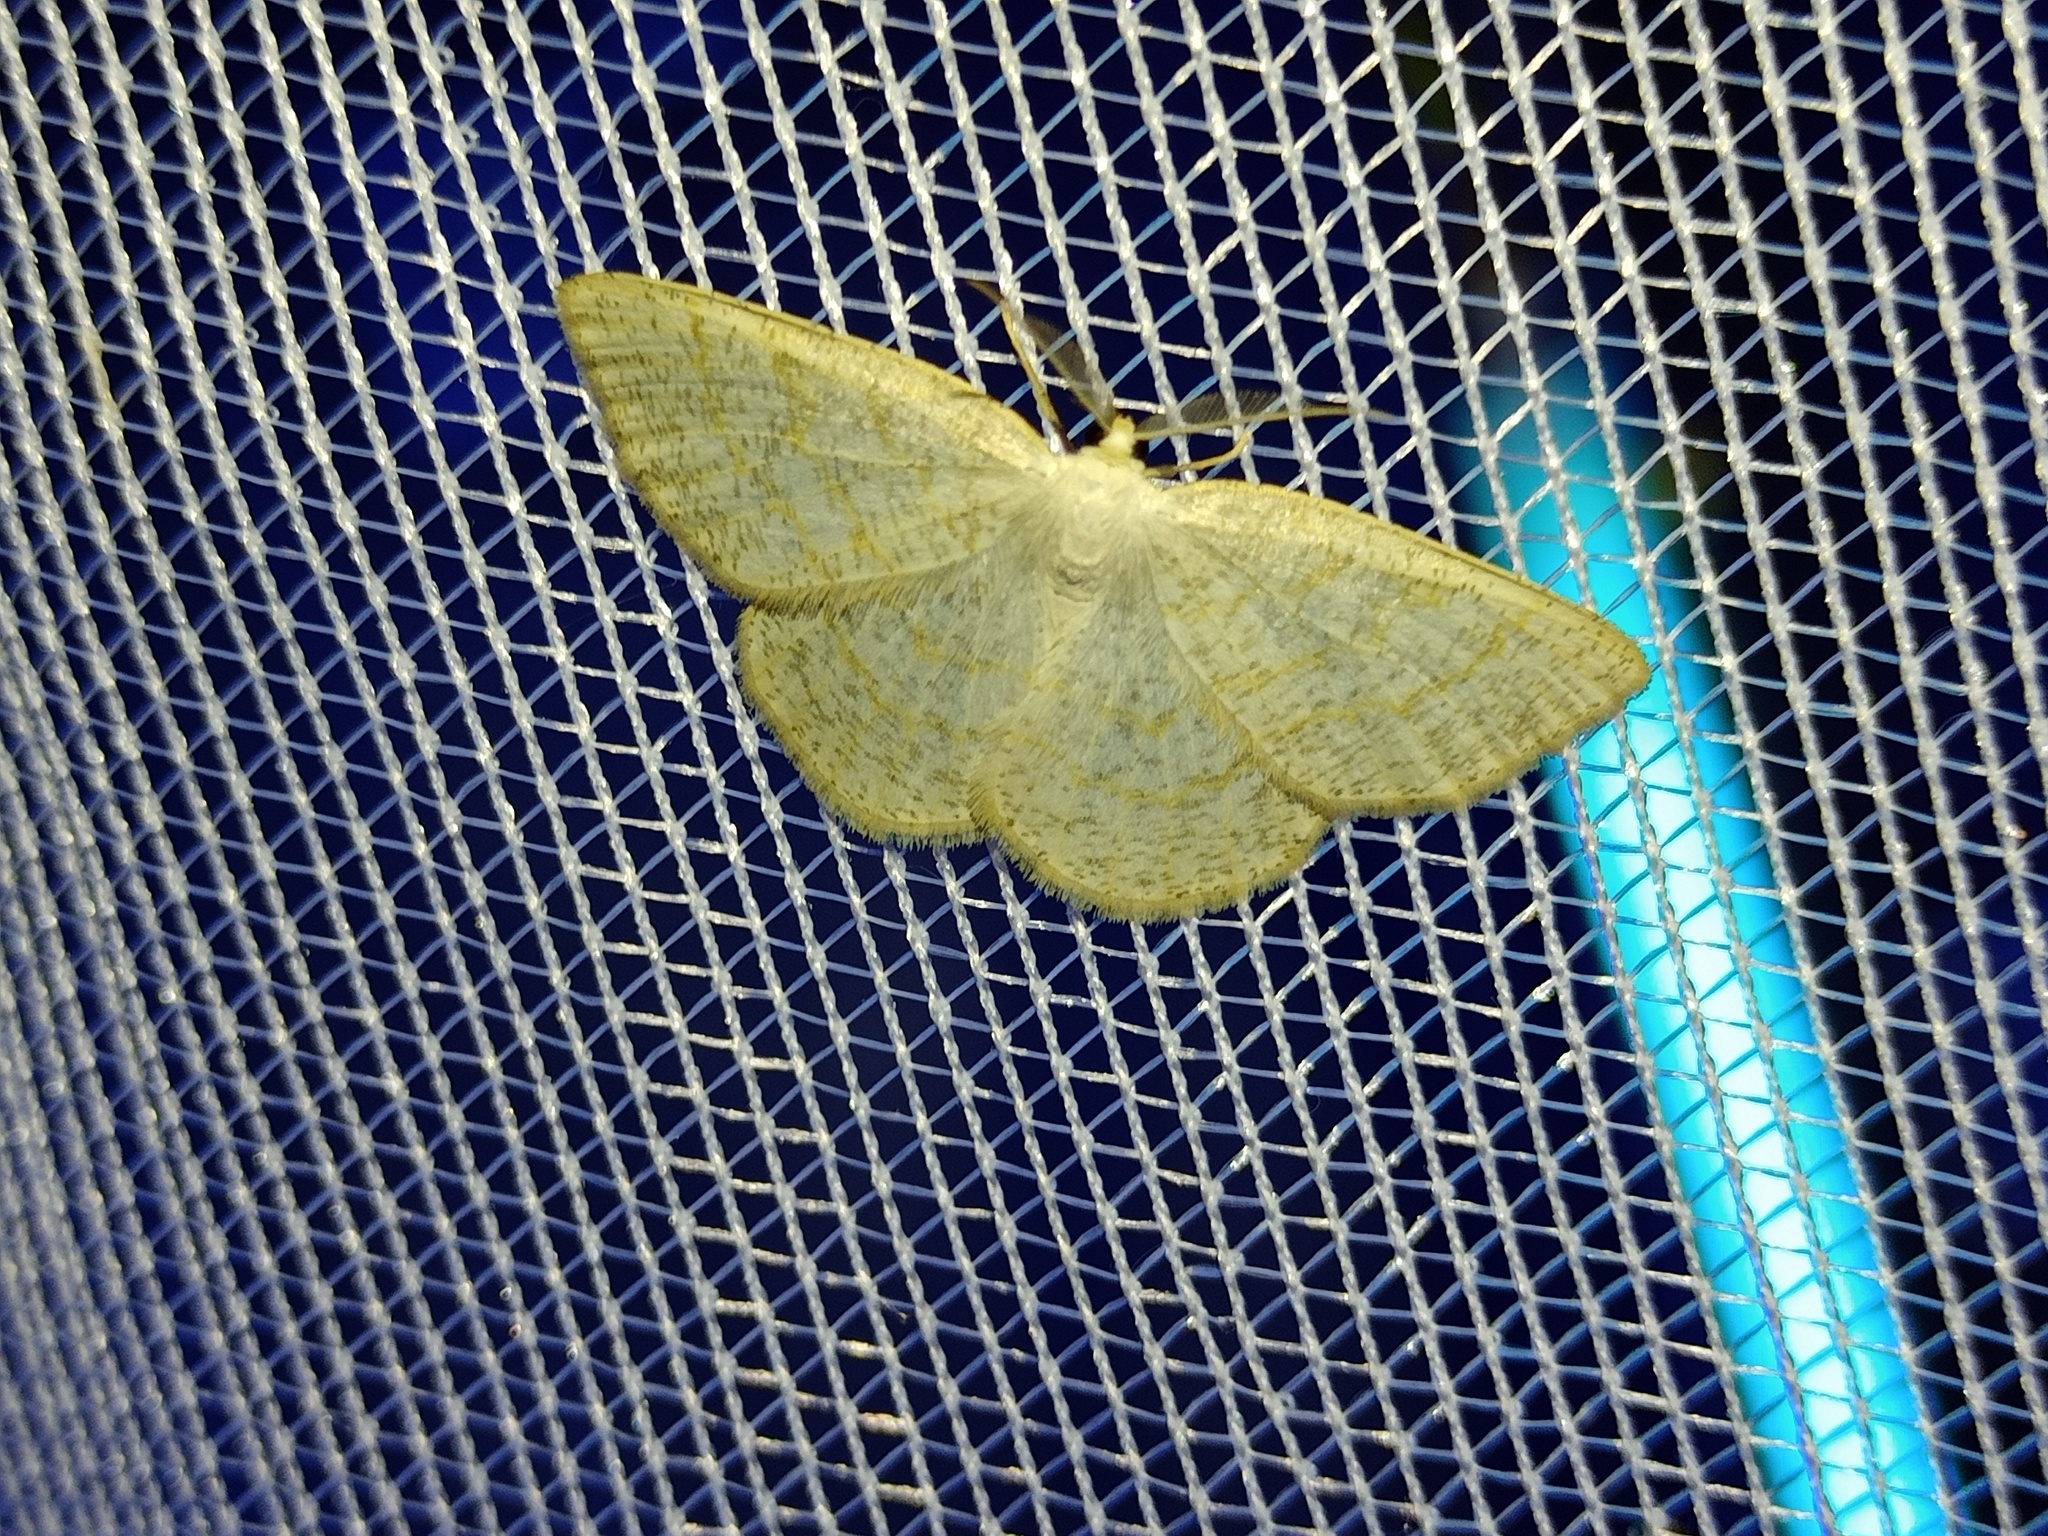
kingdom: Animalia
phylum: Arthropoda
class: Insecta
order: Lepidoptera
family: Geometridae
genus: Cabera
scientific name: Cabera exanthemata
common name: Common wave
